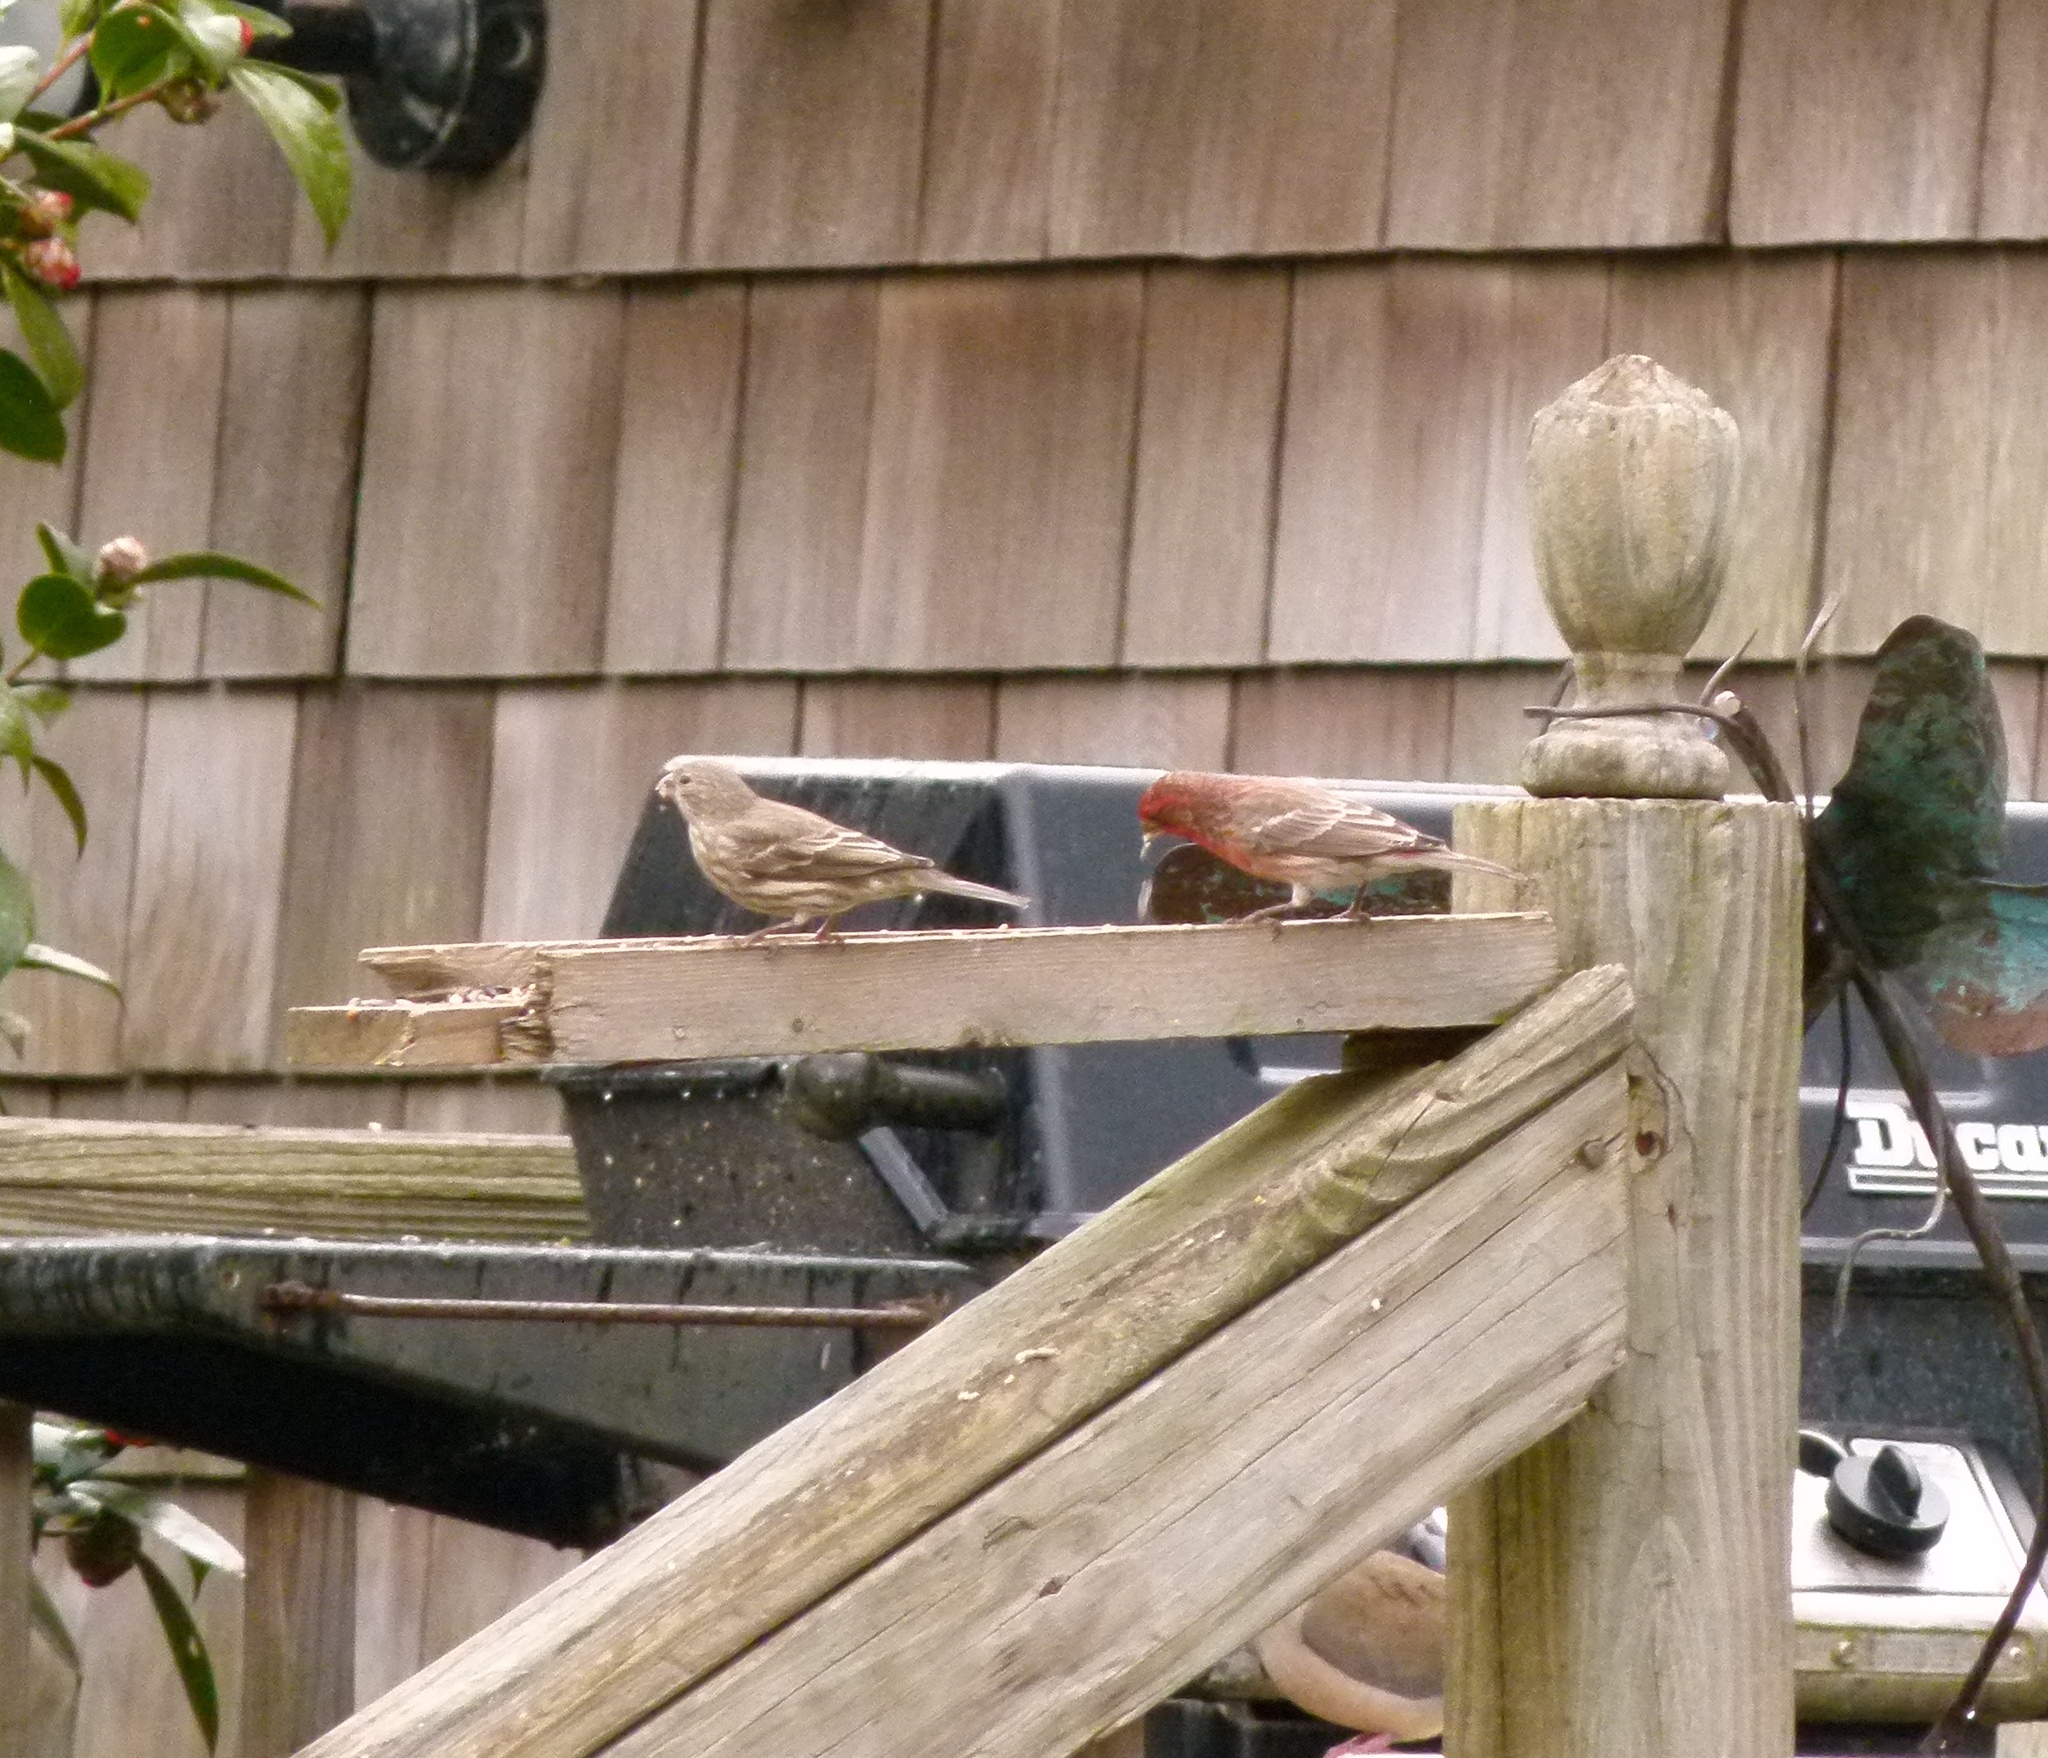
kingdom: Animalia
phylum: Chordata
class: Aves
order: Passeriformes
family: Fringillidae
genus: Haemorhous
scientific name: Haemorhous mexicanus
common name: House finch
